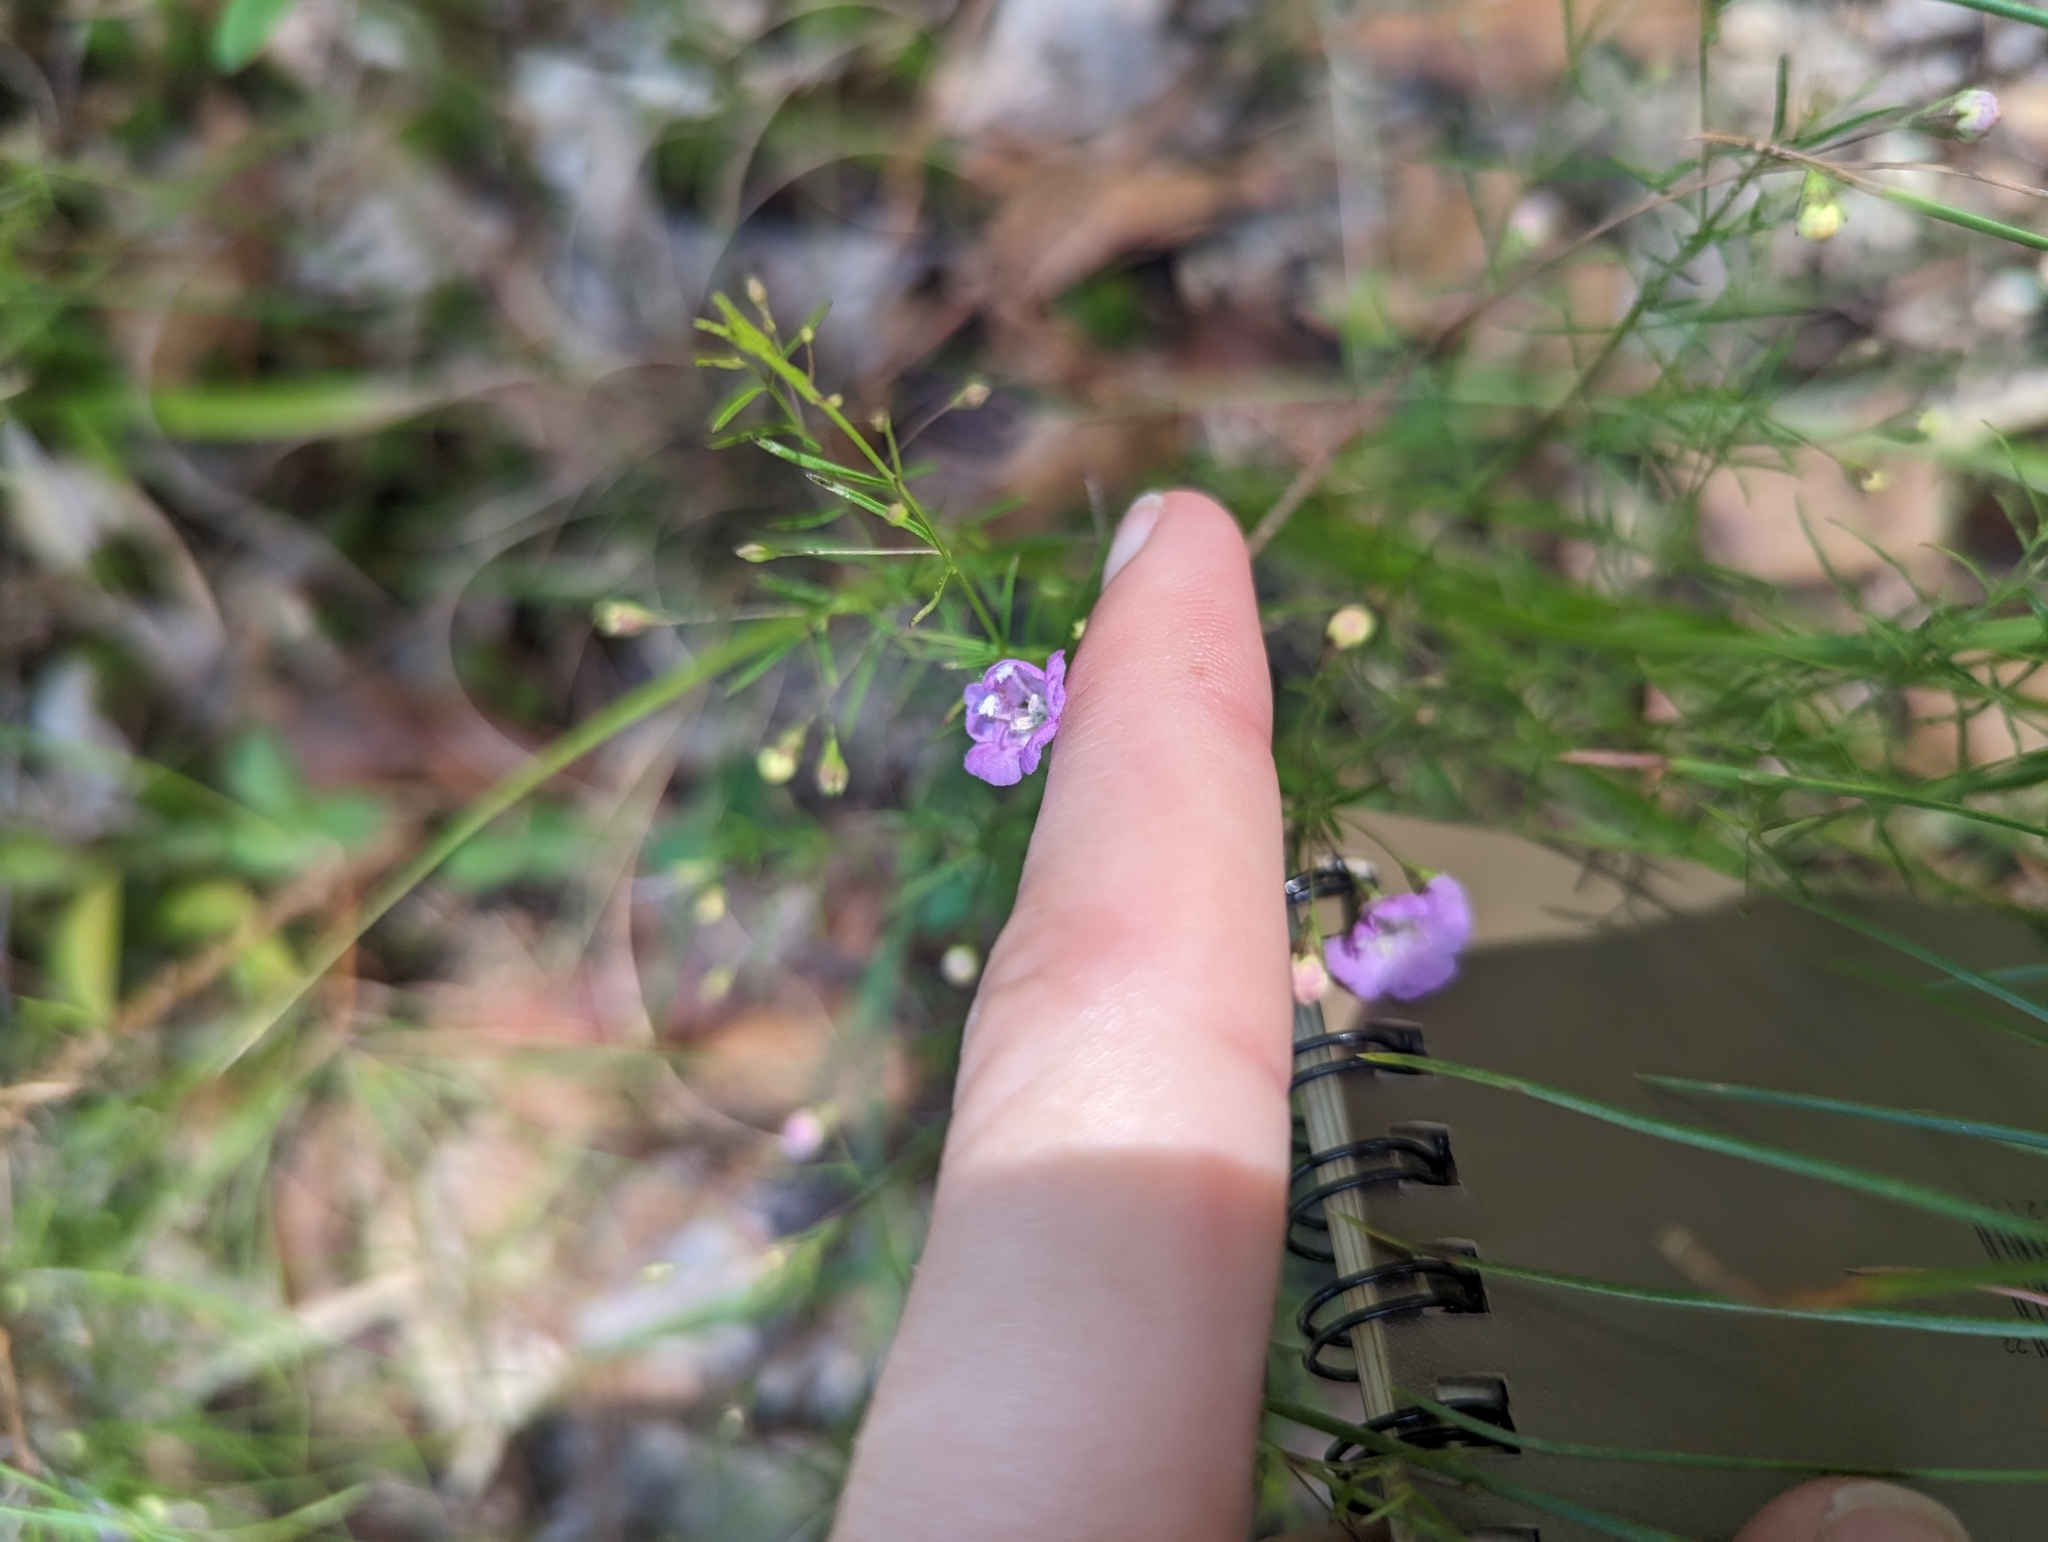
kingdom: Plantae
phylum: Tracheophyta
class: Magnoliopsida
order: Lamiales
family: Orobanchaceae
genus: Agalinis
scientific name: Agalinis tenuifolia
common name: Slender agalinis
